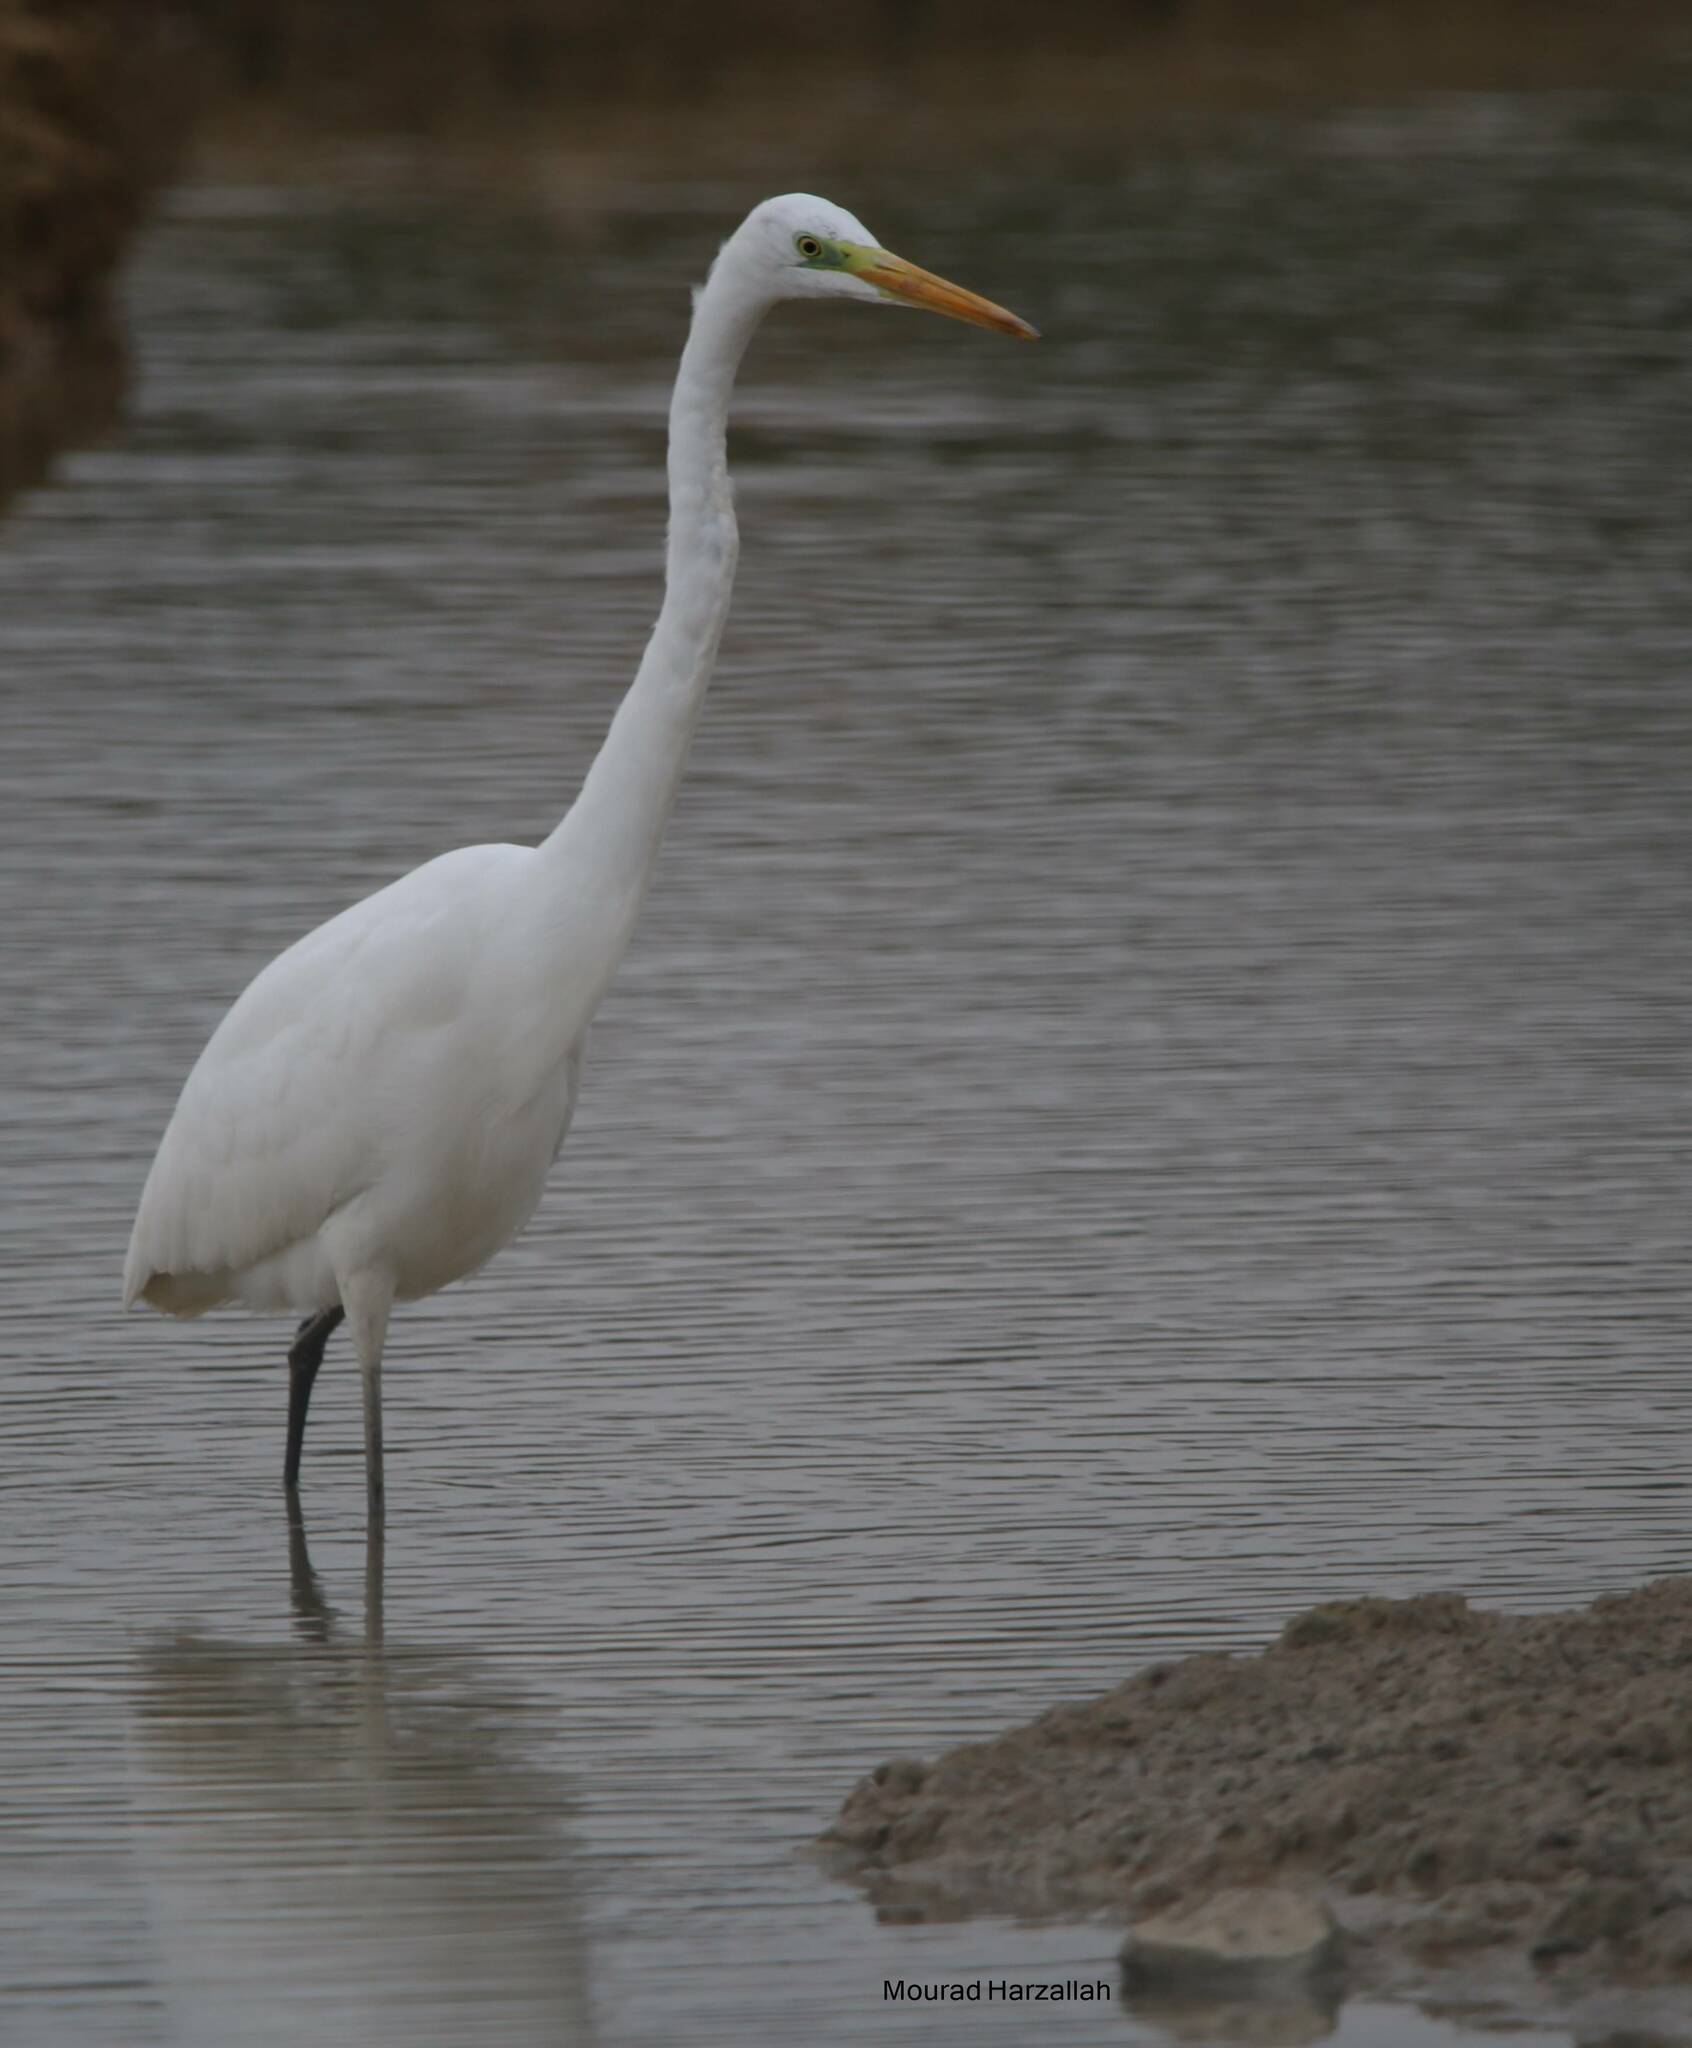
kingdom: Animalia
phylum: Chordata
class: Aves
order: Pelecaniformes
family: Ardeidae
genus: Ardea
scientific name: Ardea alba
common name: Great egret
